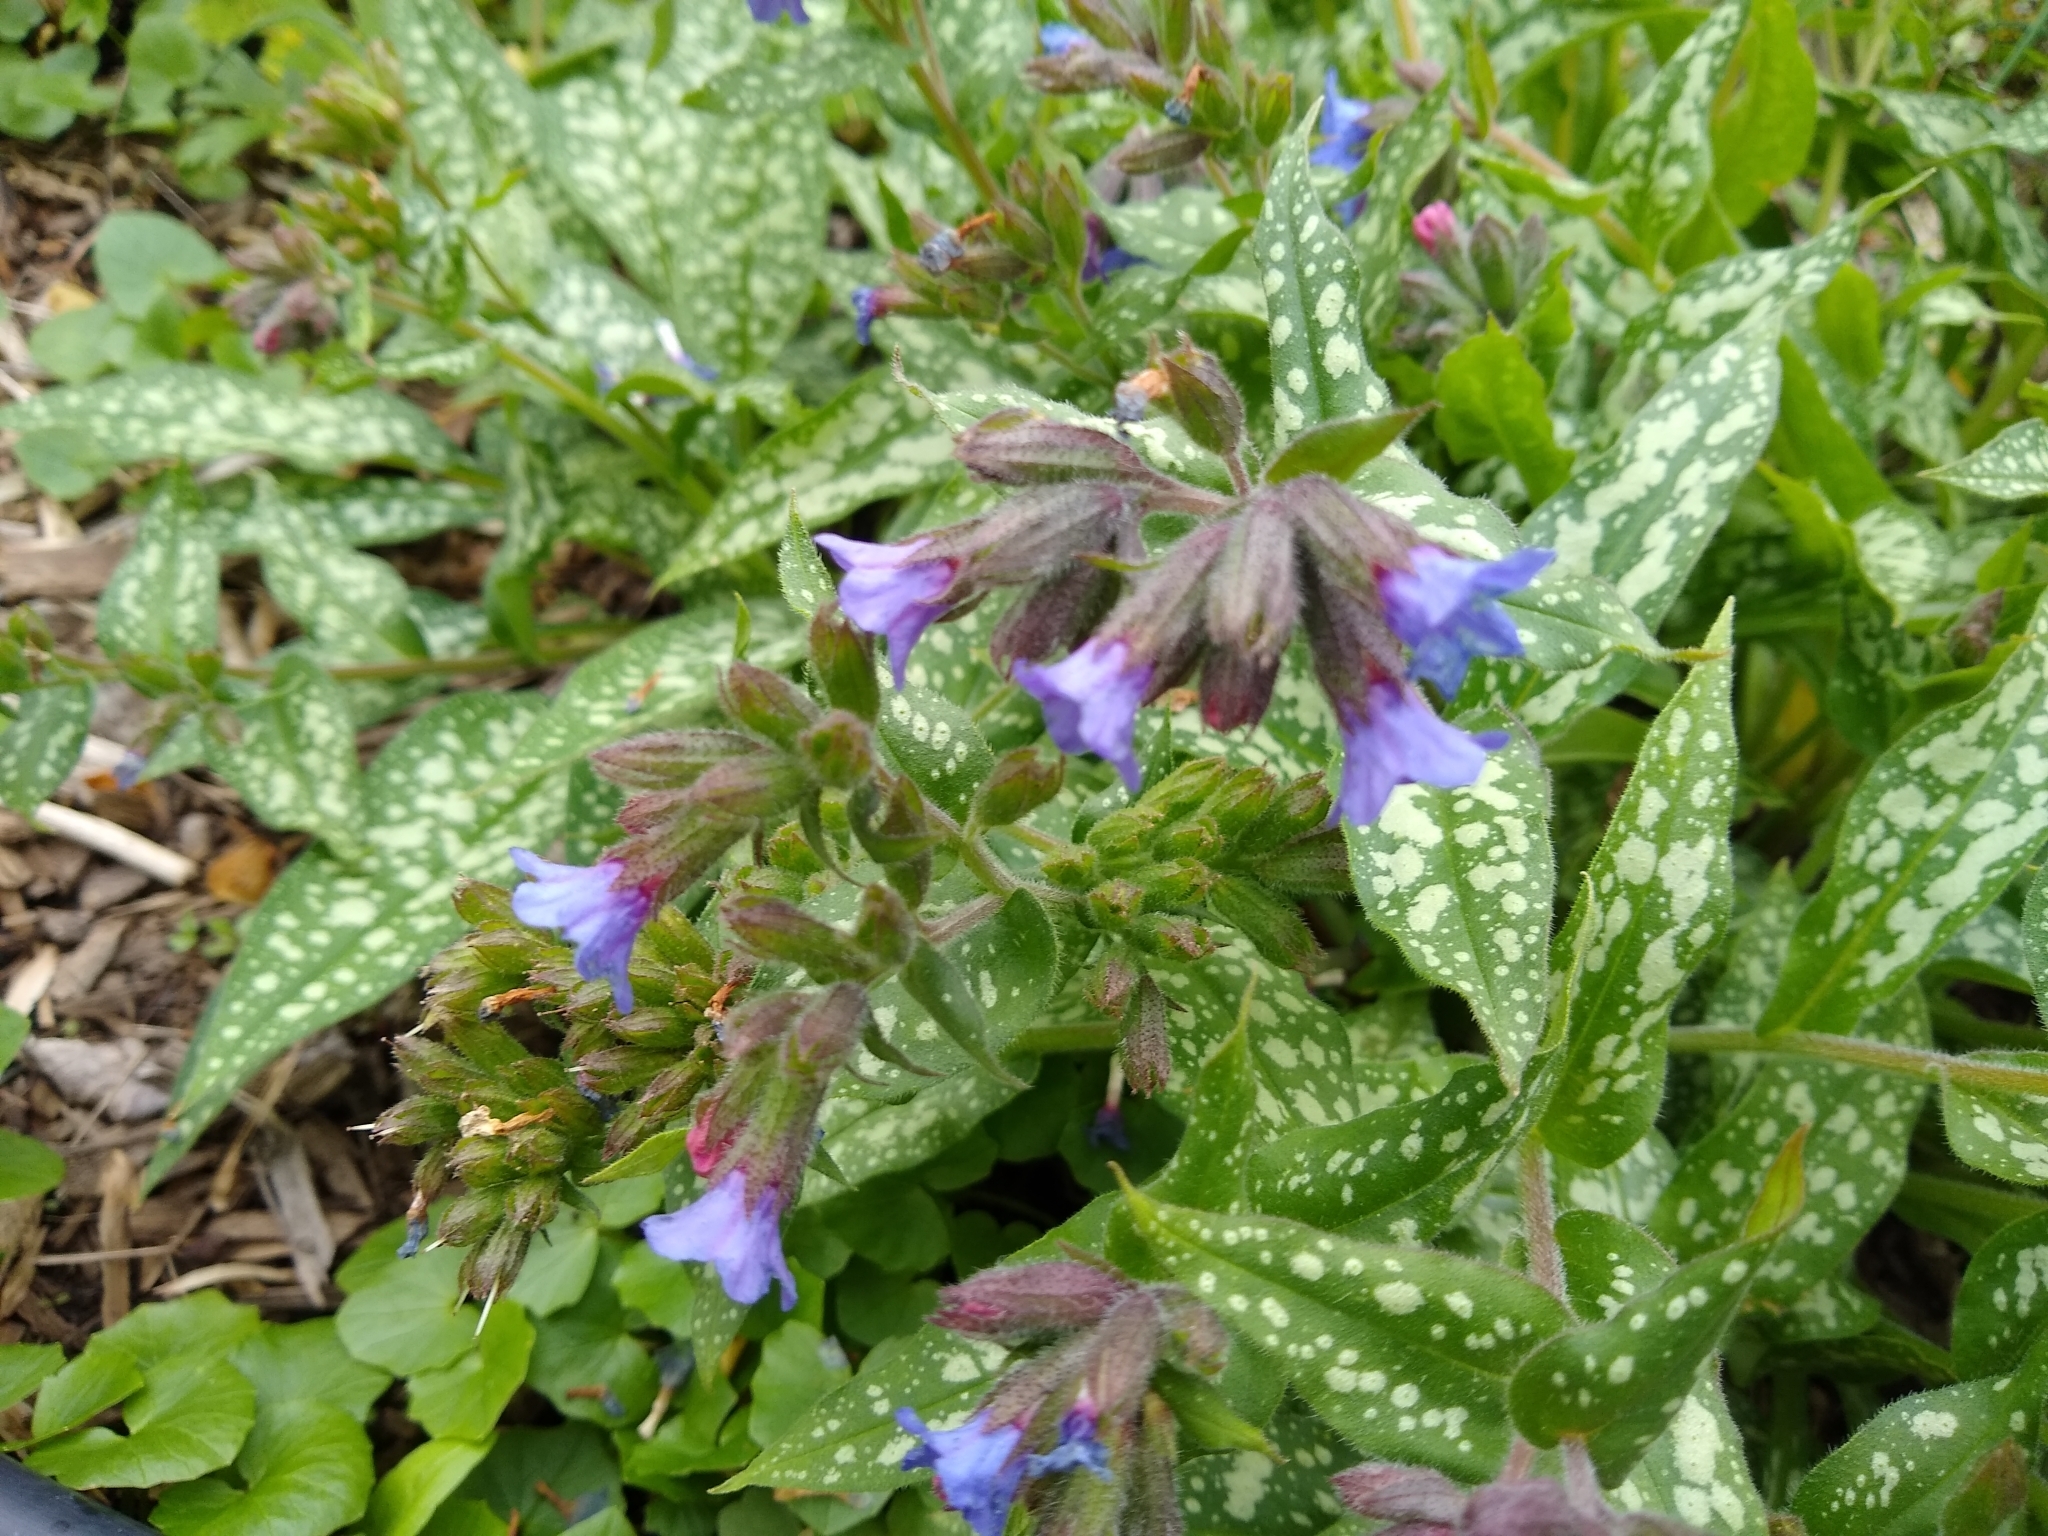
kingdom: Plantae
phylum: Tracheophyta
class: Magnoliopsida
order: Boraginales
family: Boraginaceae
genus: Pulmonaria
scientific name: Pulmonaria officinalis
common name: Lungwort
